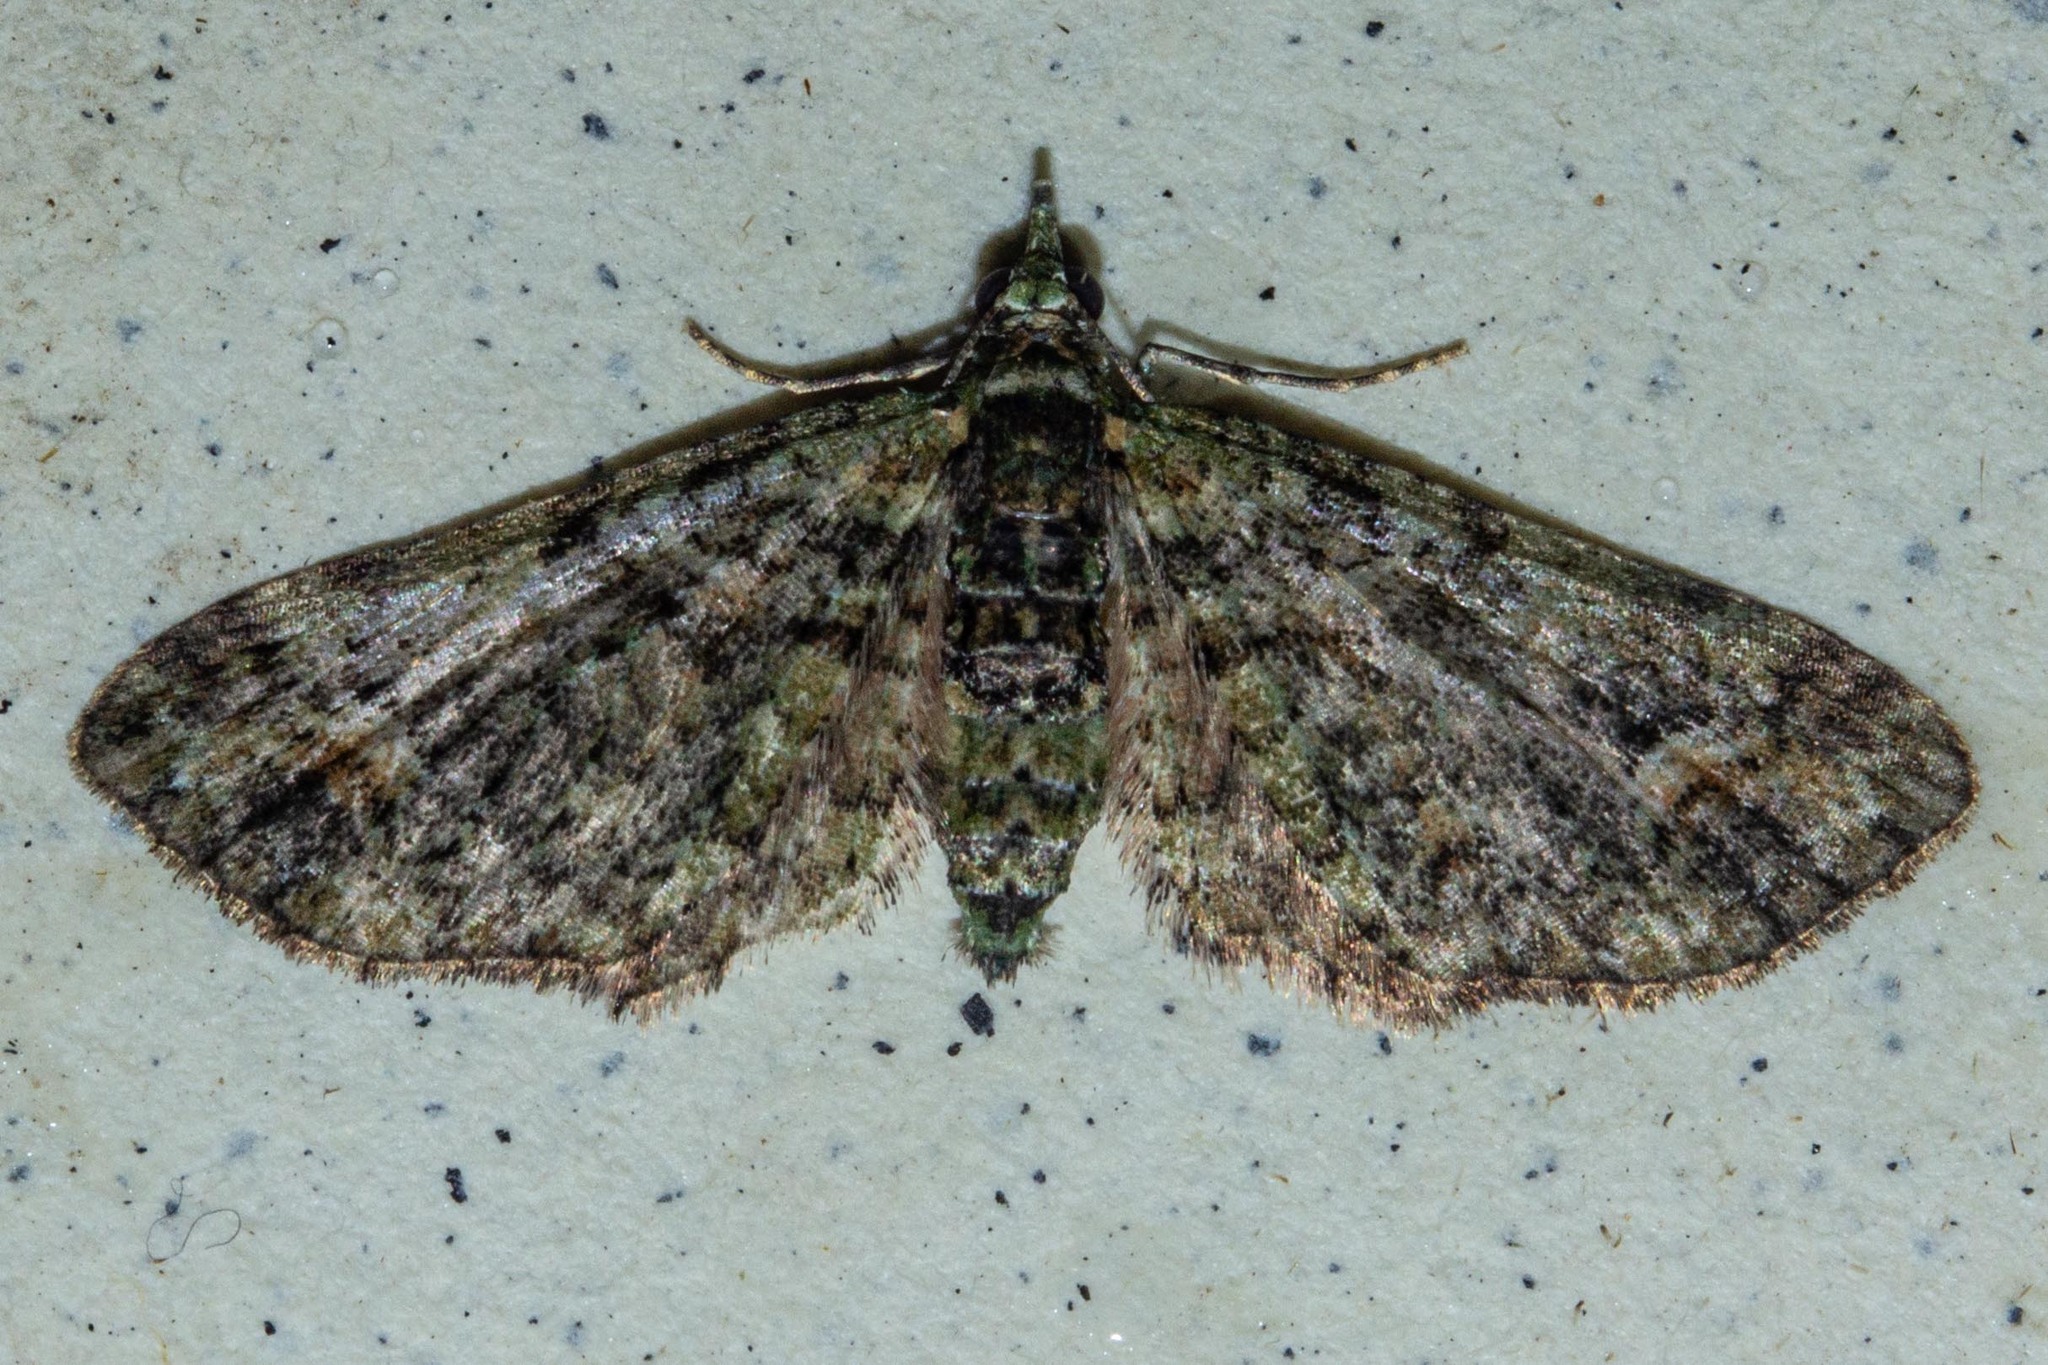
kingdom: Animalia
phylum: Arthropoda
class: Insecta
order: Lepidoptera
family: Geometridae
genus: Idaea
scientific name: Idaea mutanda
